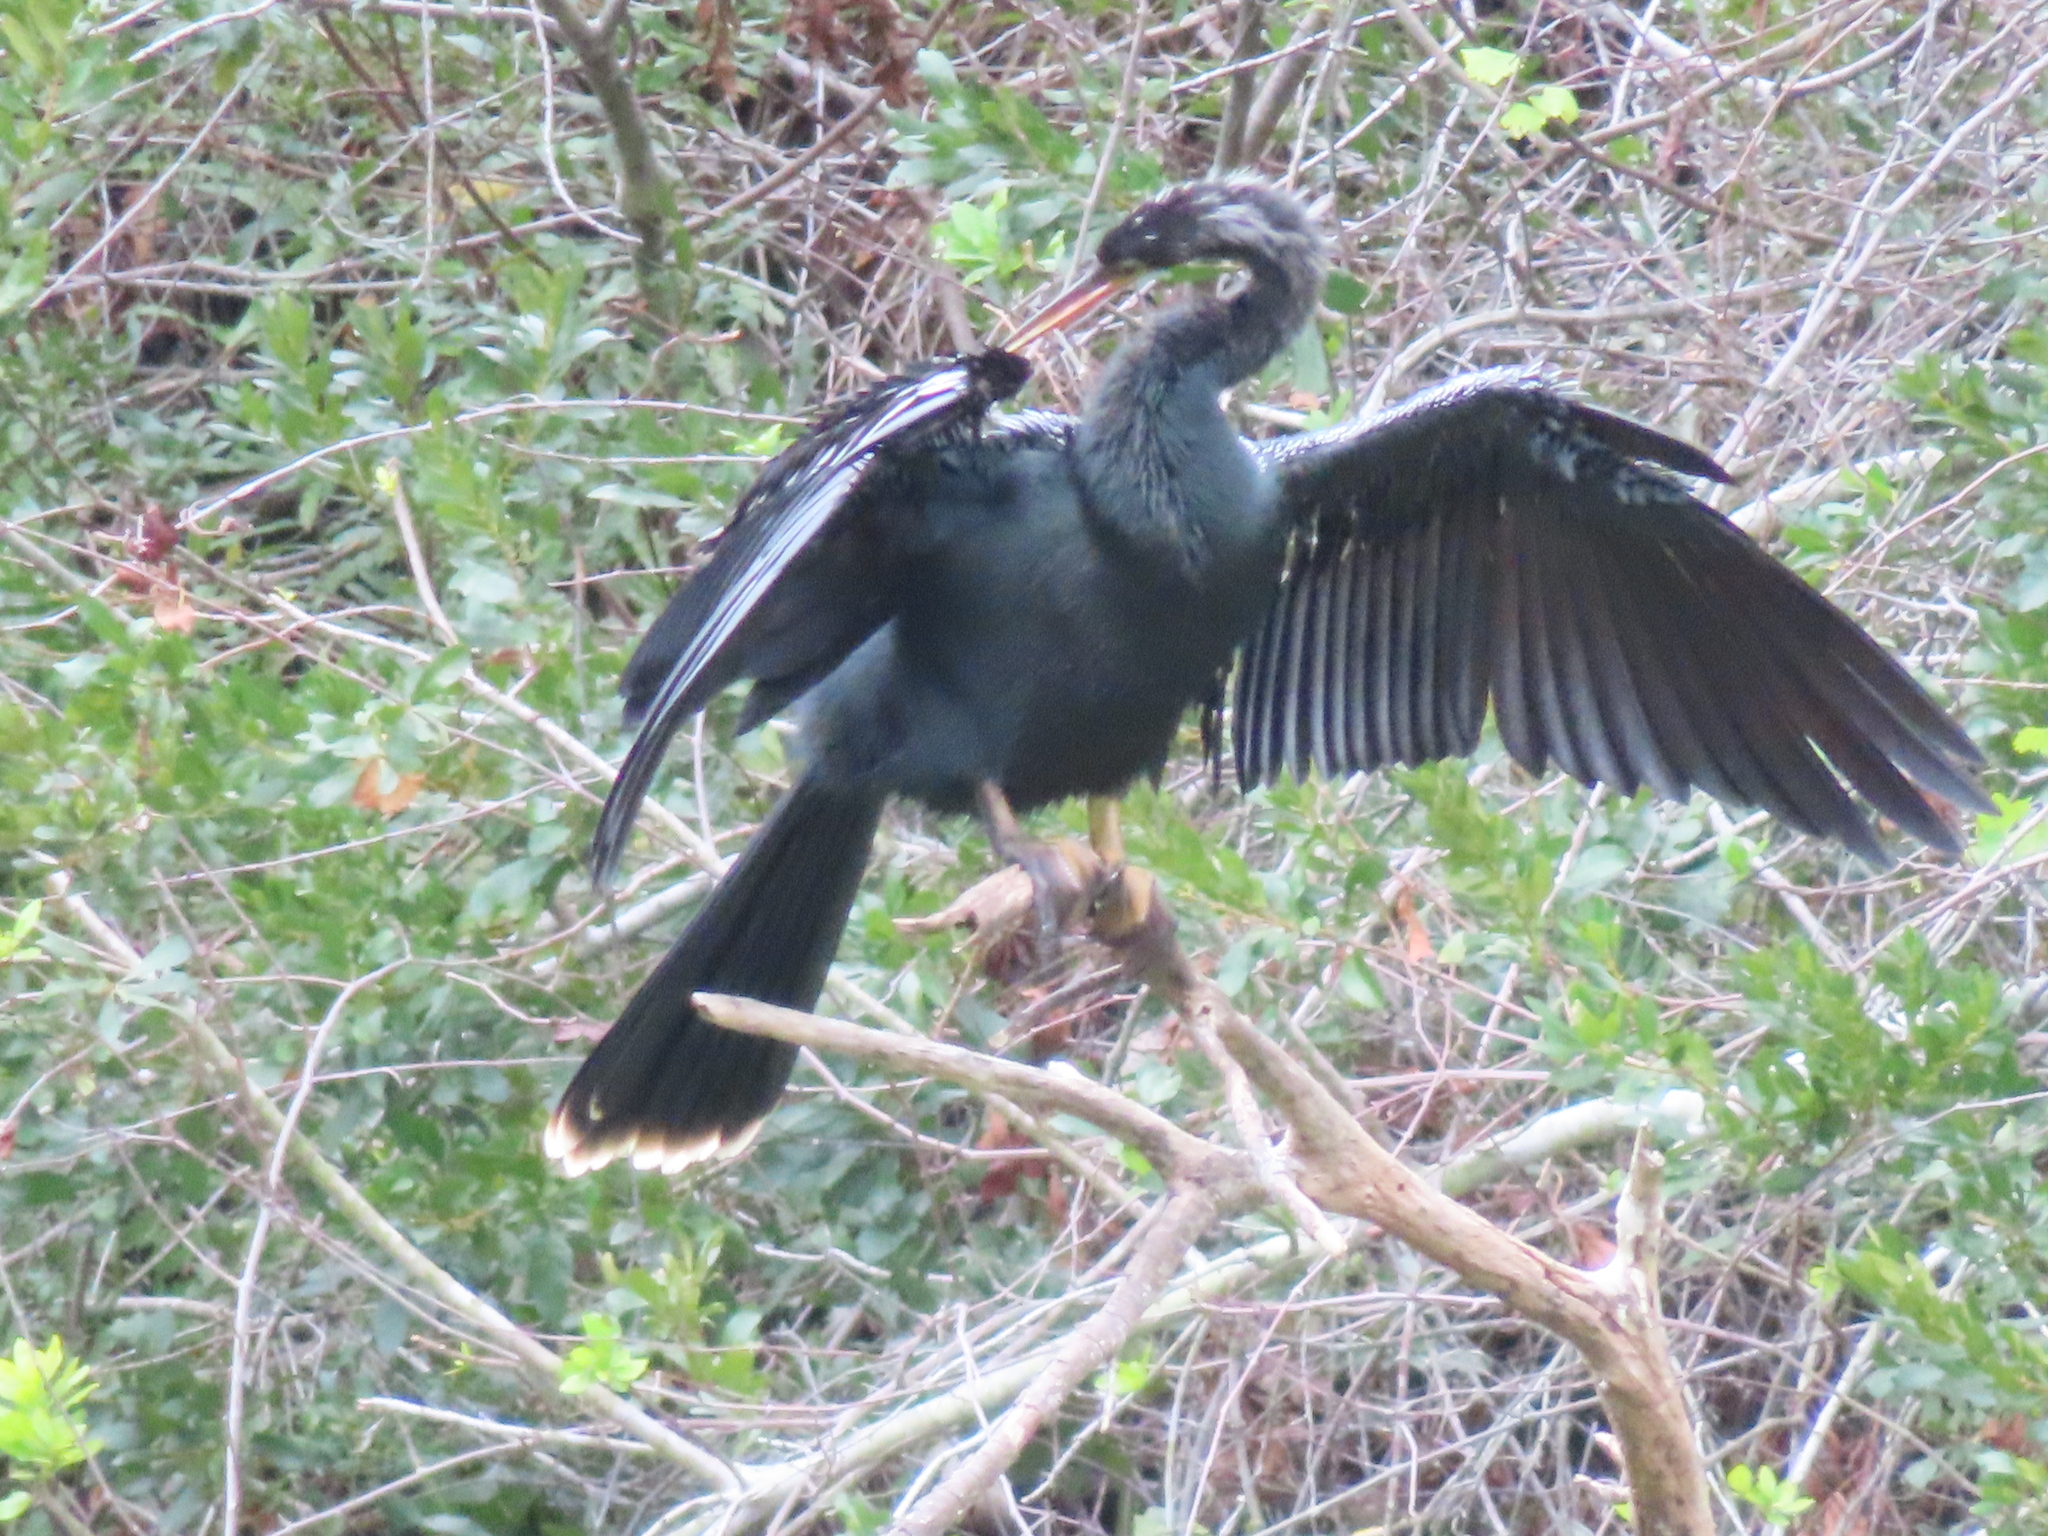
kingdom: Animalia
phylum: Chordata
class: Aves
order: Suliformes
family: Anhingidae
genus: Anhinga
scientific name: Anhinga anhinga
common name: Anhinga
